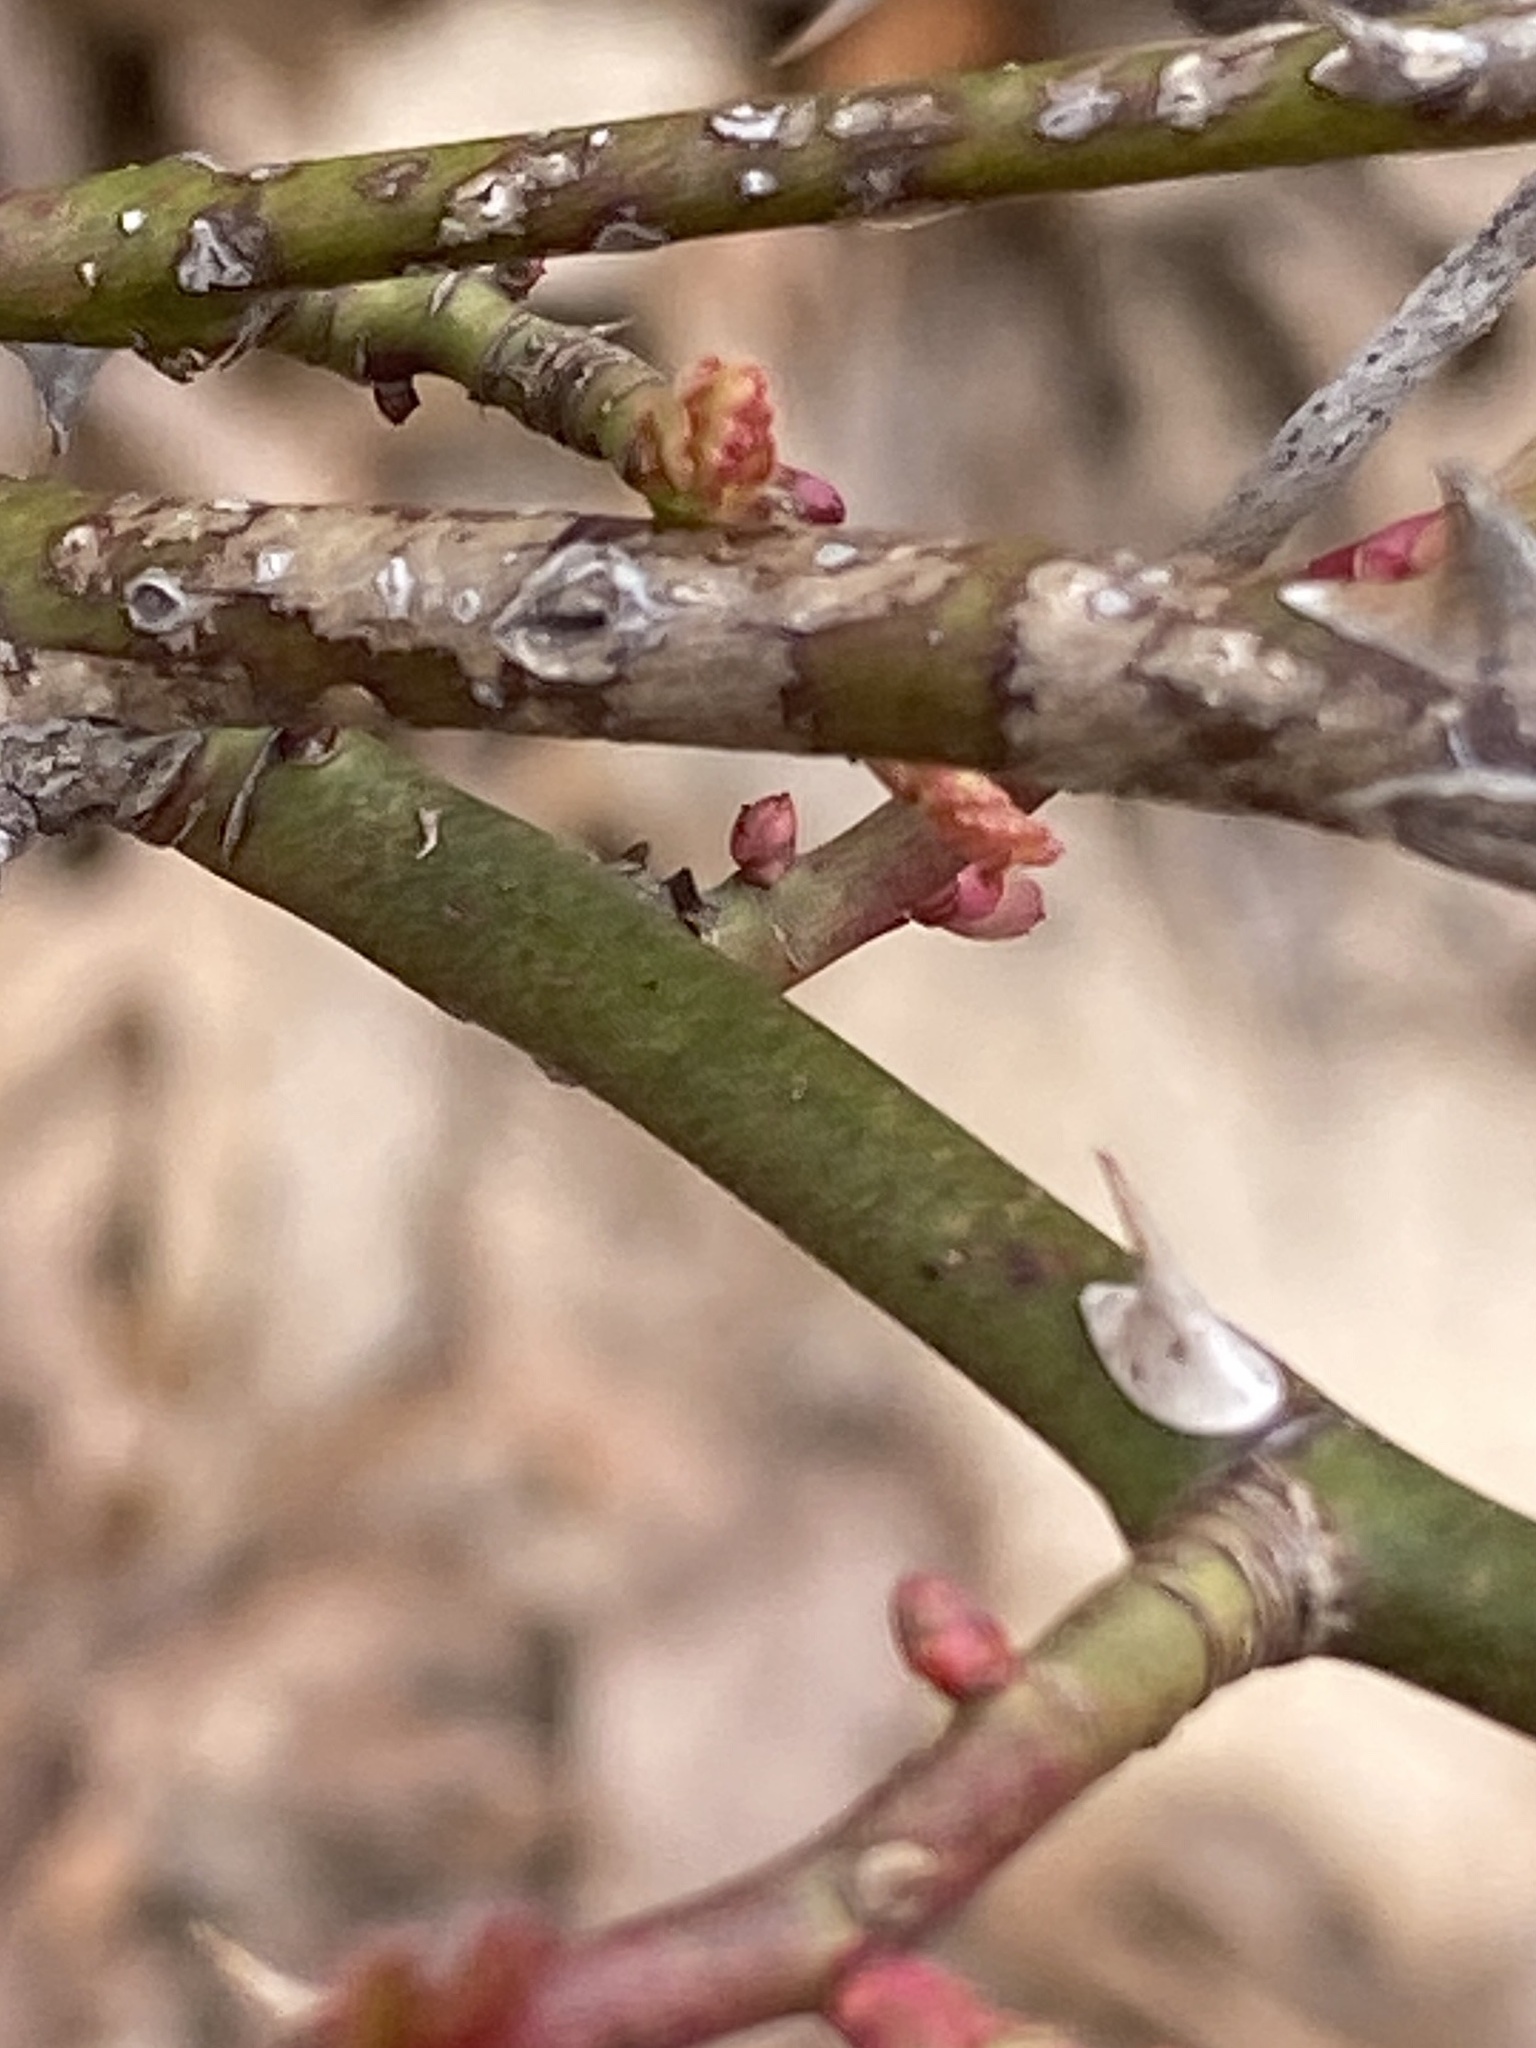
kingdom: Plantae
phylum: Tracheophyta
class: Magnoliopsida
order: Rosales
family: Rosaceae
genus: Rosa
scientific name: Rosa multiflora
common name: Multiflora rose
